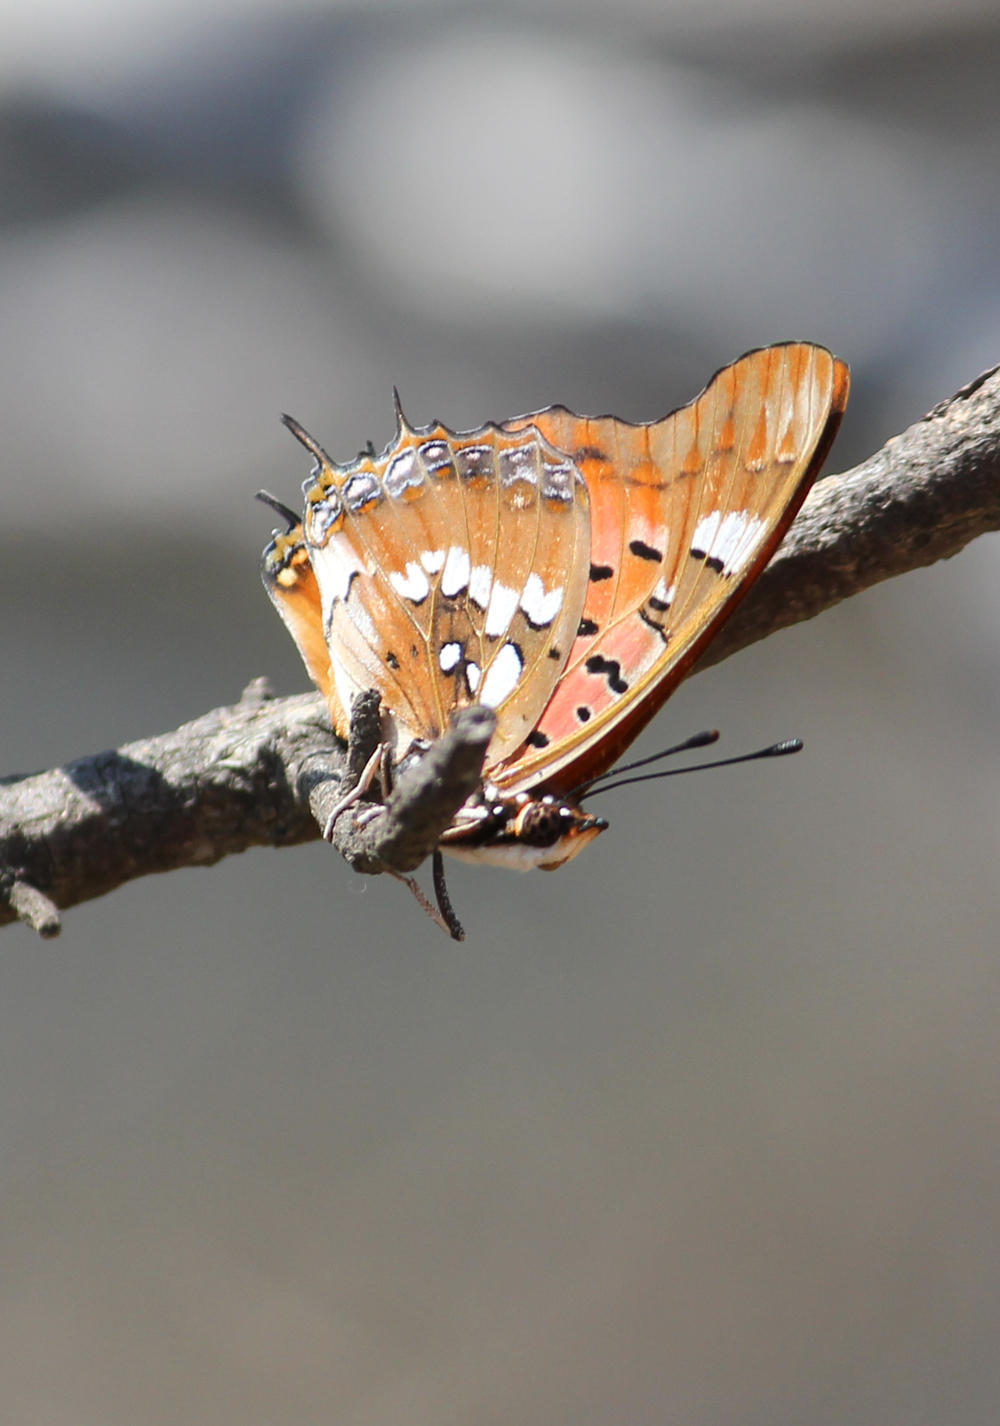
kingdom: Animalia
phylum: Arthropoda
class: Insecta
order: Lepidoptera
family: Nymphalidae
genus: Charaxes
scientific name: Charaxes jahlusa
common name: Pearl-spotted charaxes
